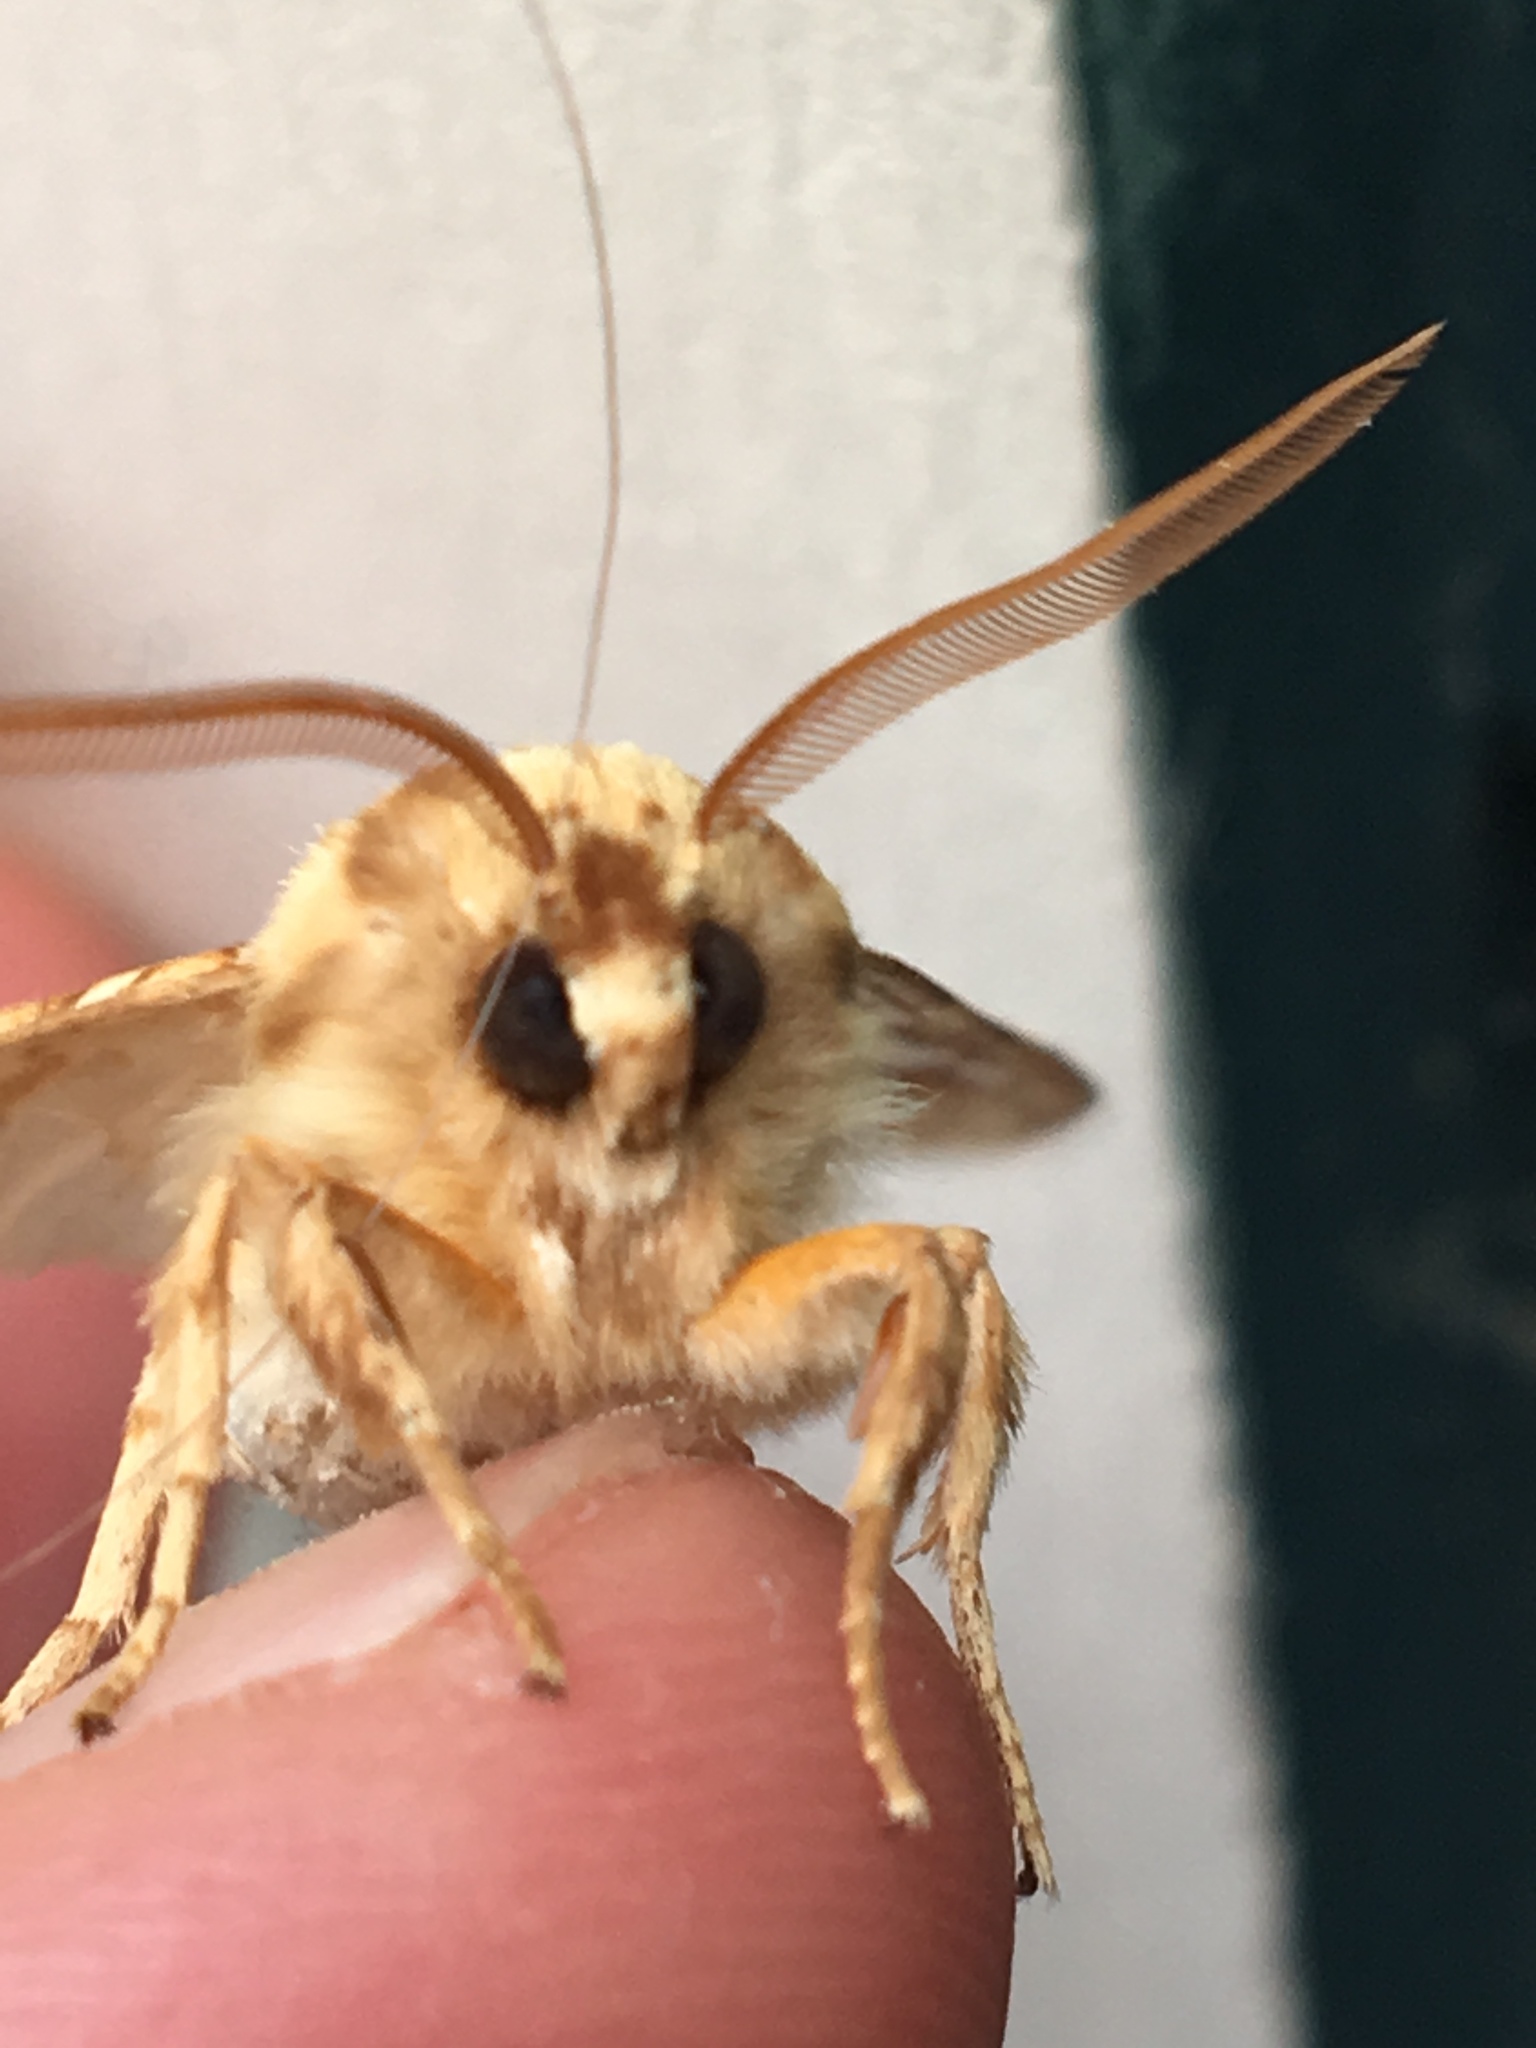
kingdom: Animalia
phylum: Arthropoda
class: Insecta
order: Lepidoptera
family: Erebidae
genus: Lophocampa
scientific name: Lophocampa caryae
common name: Hickory tussock moth
